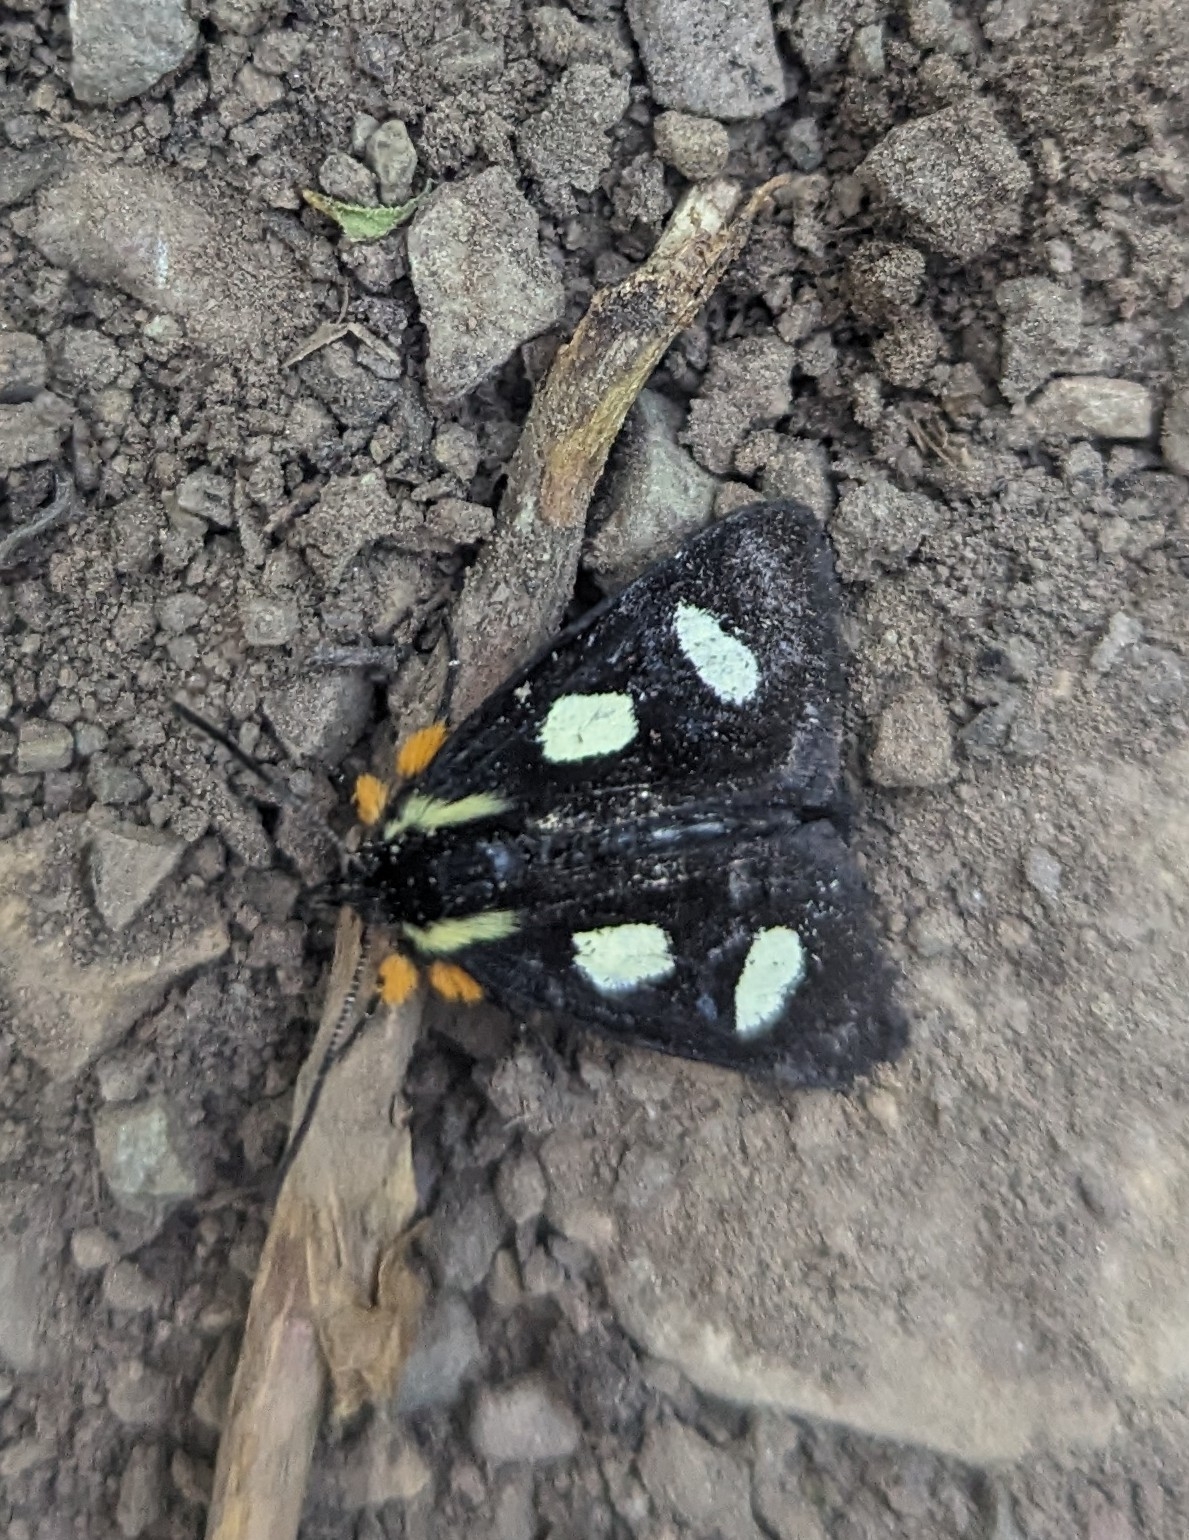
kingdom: Animalia
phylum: Arthropoda
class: Insecta
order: Lepidoptera
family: Noctuidae
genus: Alypia
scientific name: Alypia langtonii
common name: Fireweed caterpillar
